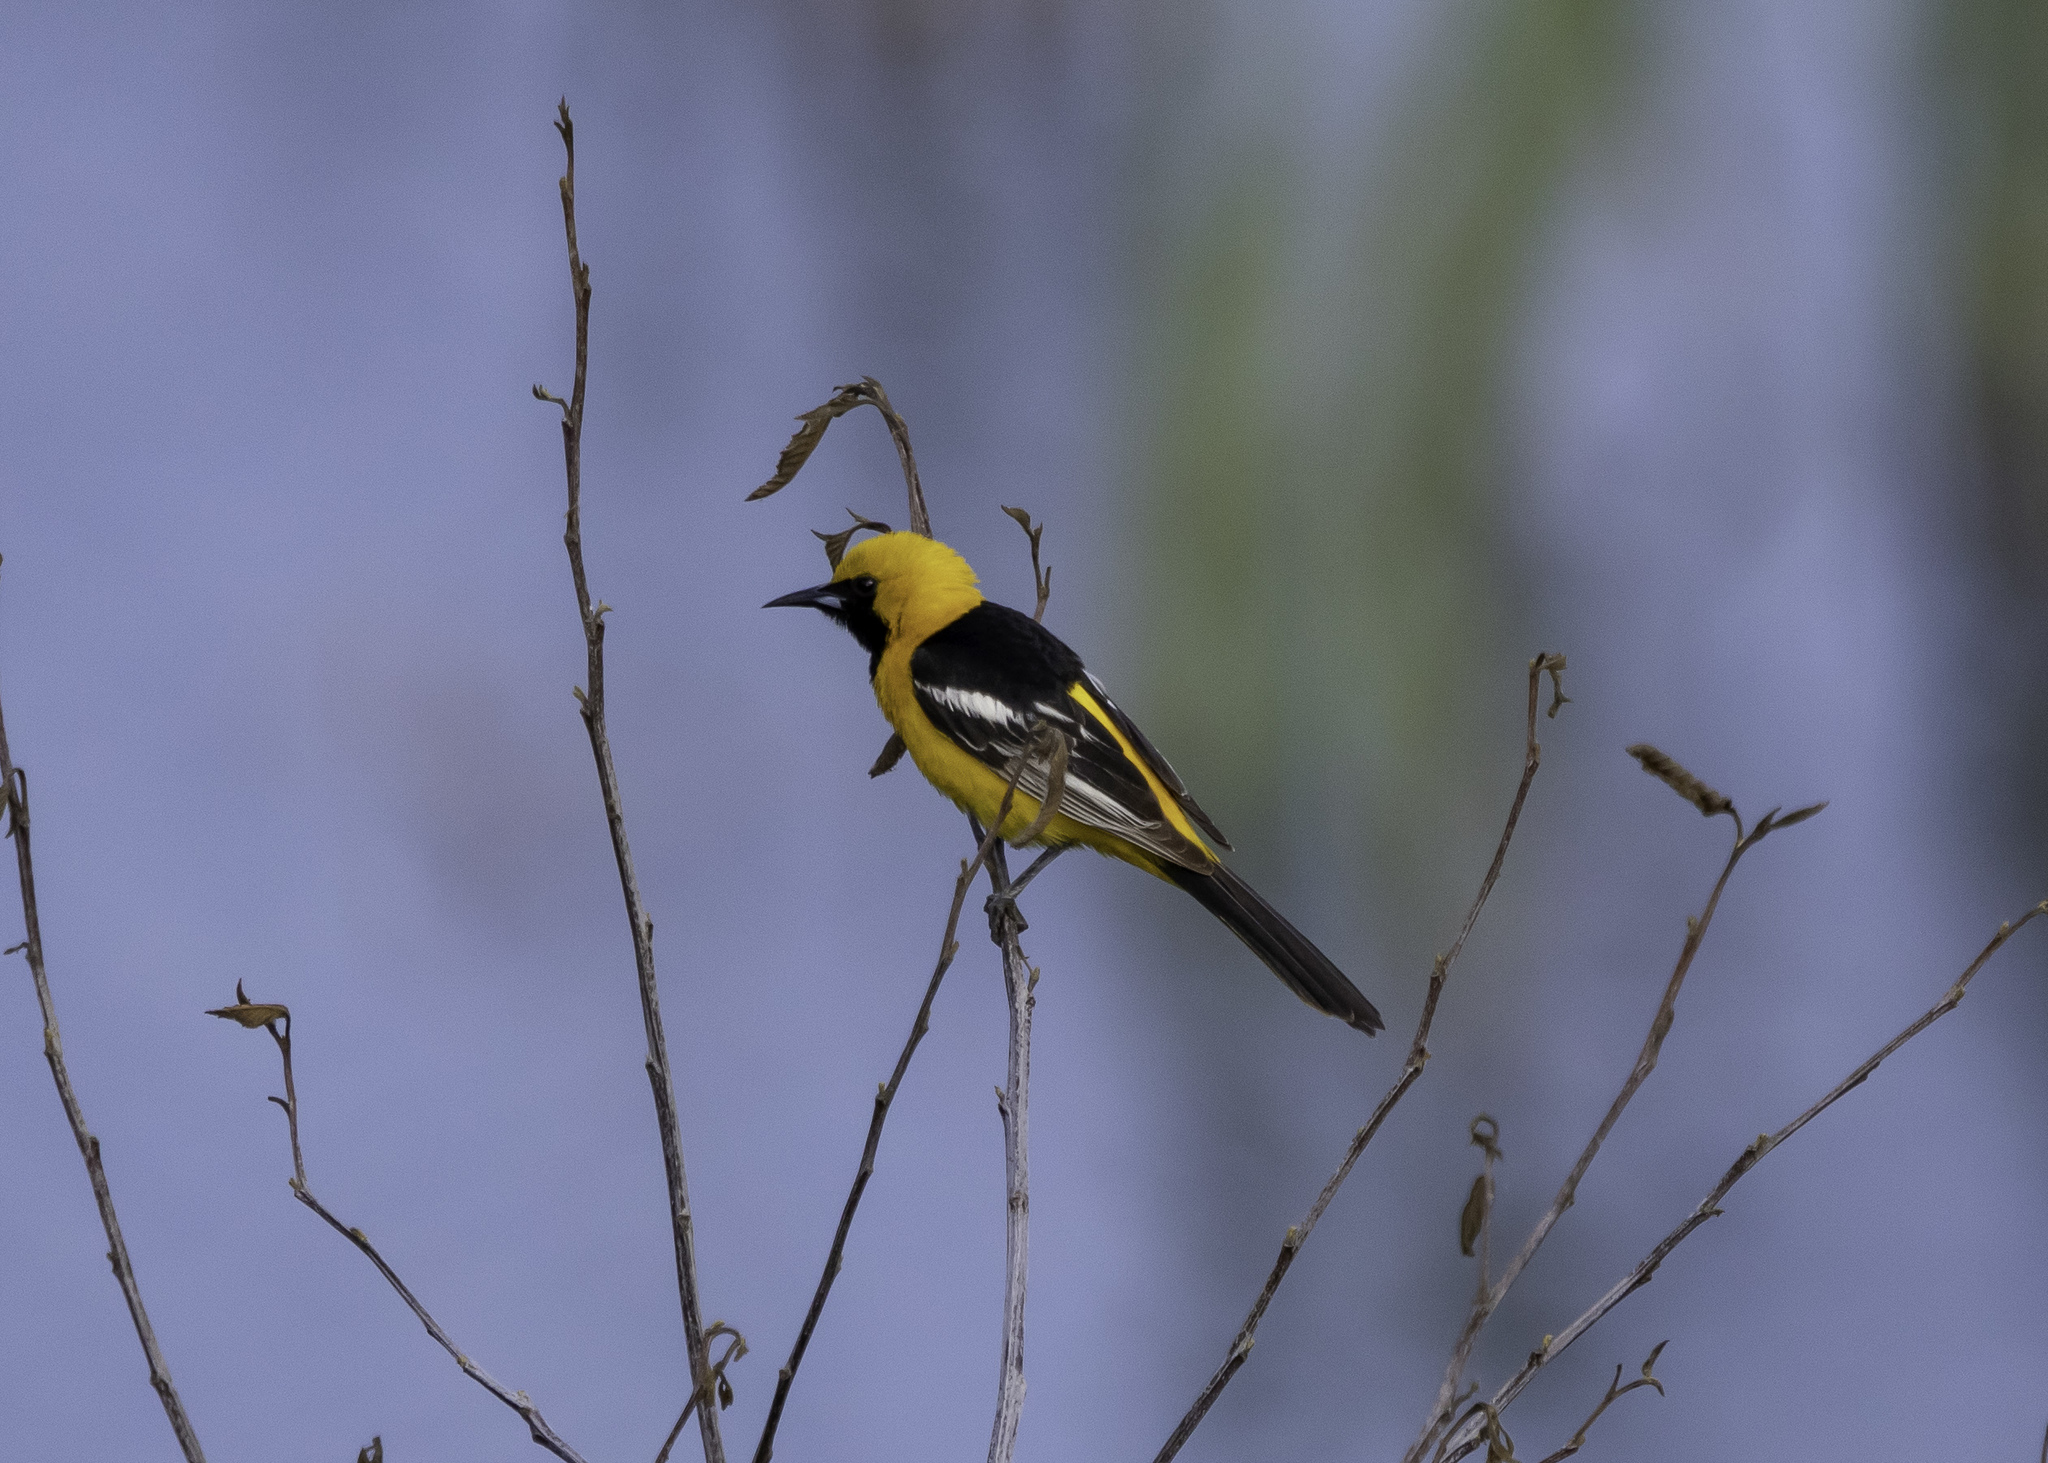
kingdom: Animalia
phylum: Chordata
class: Aves
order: Passeriformes
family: Icteridae
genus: Icterus
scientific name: Icterus cucullatus
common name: Hooded oriole
